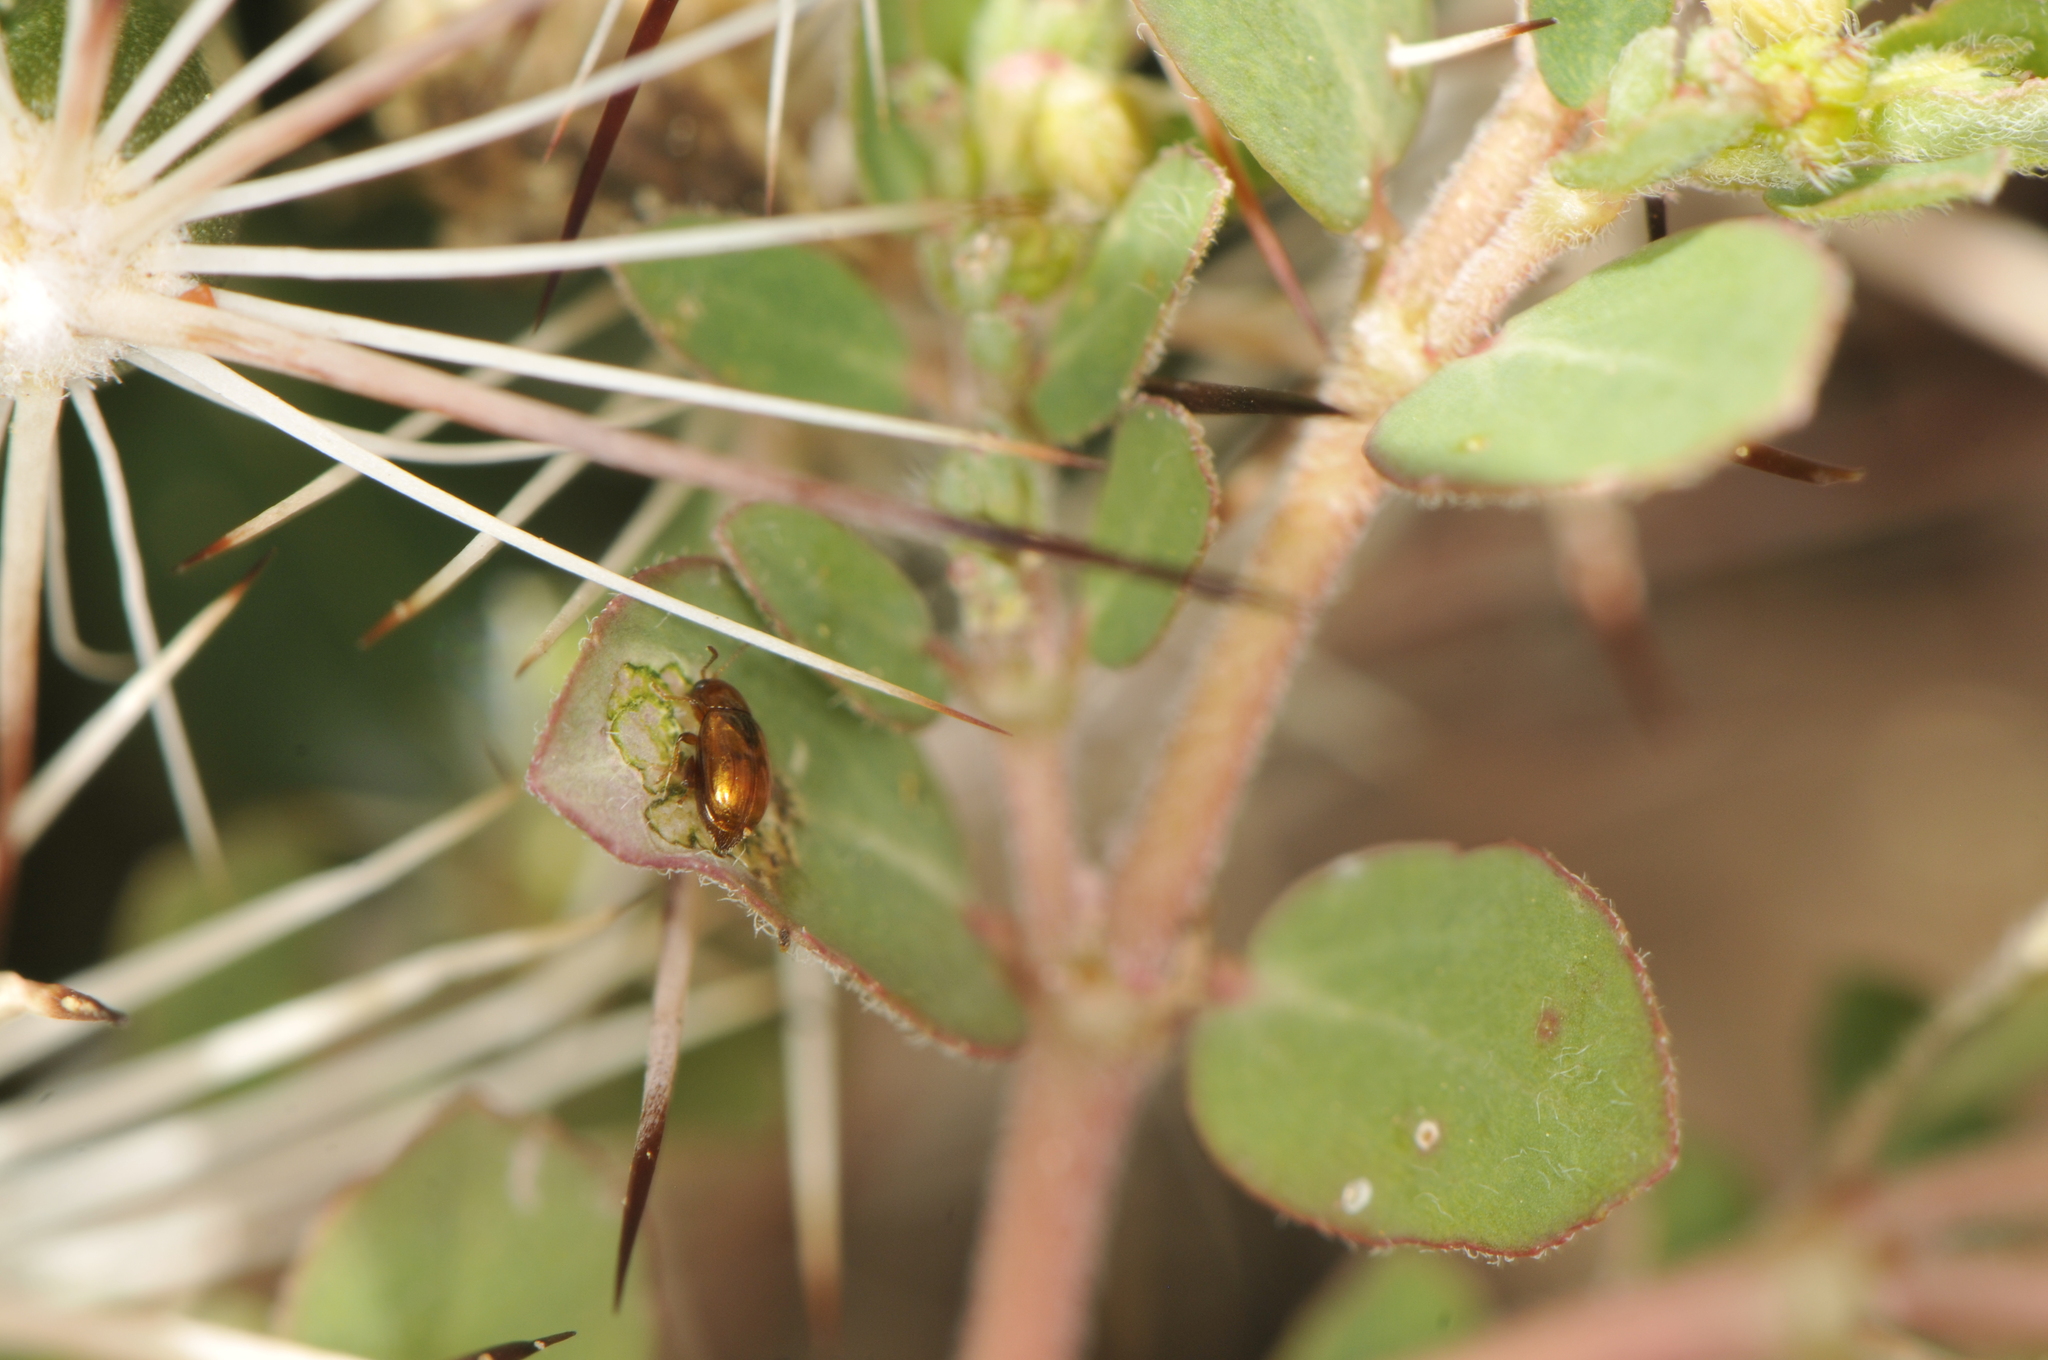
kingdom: Plantae
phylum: Tracheophyta
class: Magnoliopsida
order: Malpighiales
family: Euphorbiaceae
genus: Euphorbia
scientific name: Euphorbia prostrata
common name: Prostrate sandmat
